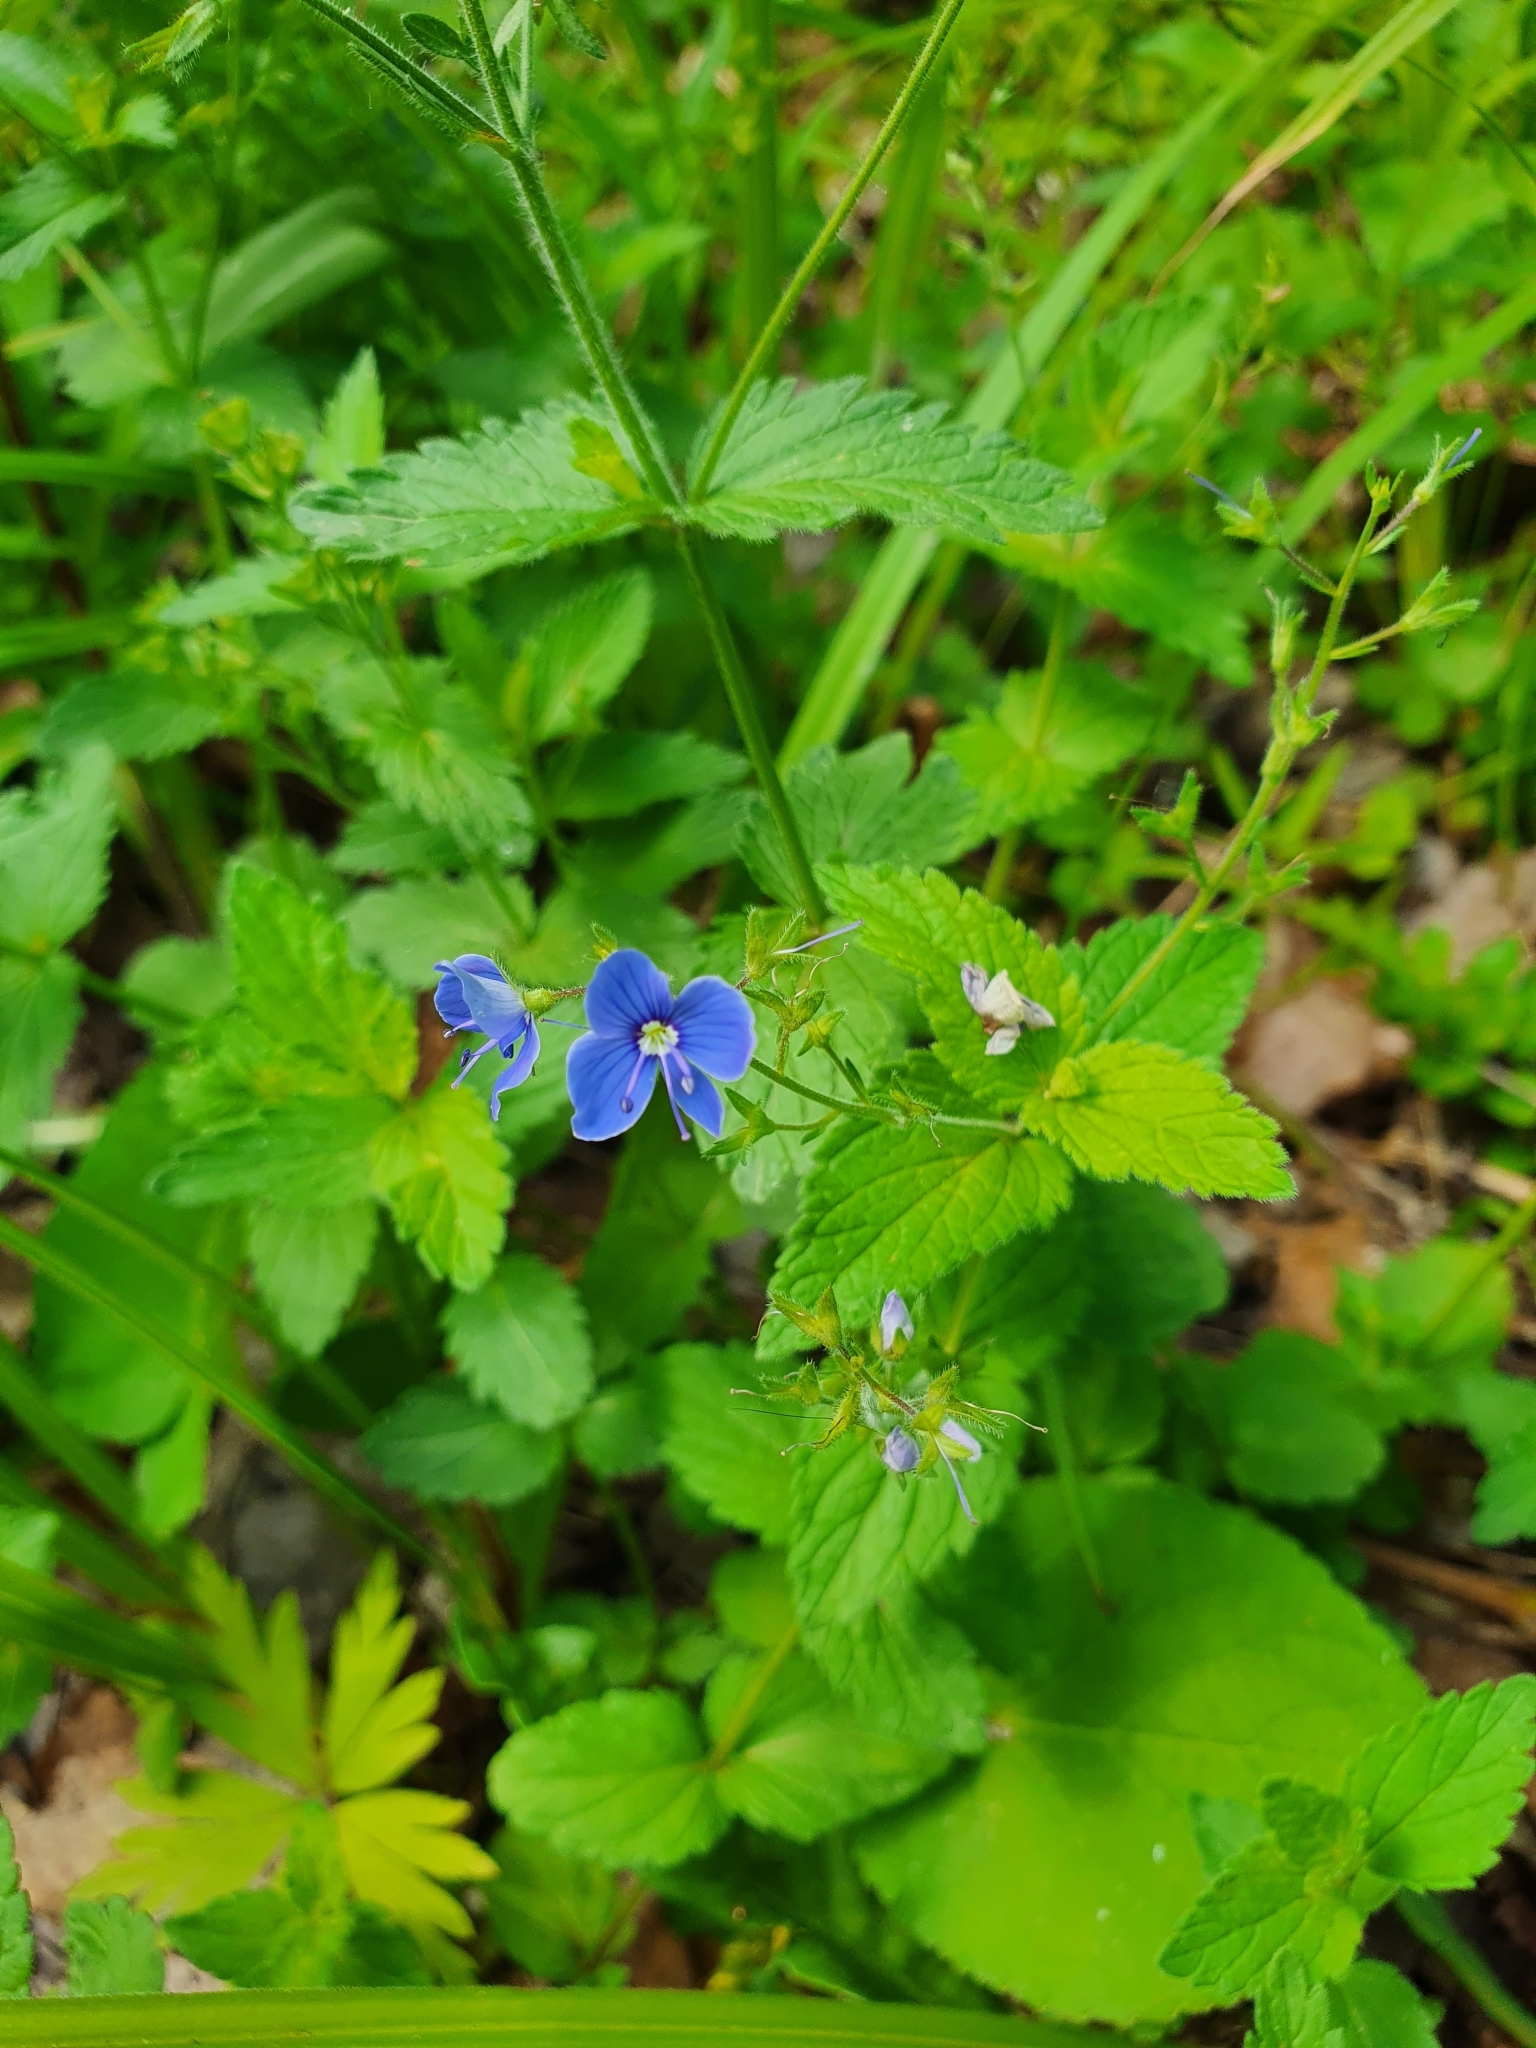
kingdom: Plantae
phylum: Tracheophyta
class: Magnoliopsida
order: Lamiales
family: Plantaginaceae
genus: Veronica
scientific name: Veronica chamaedrys
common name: Germander speedwell
